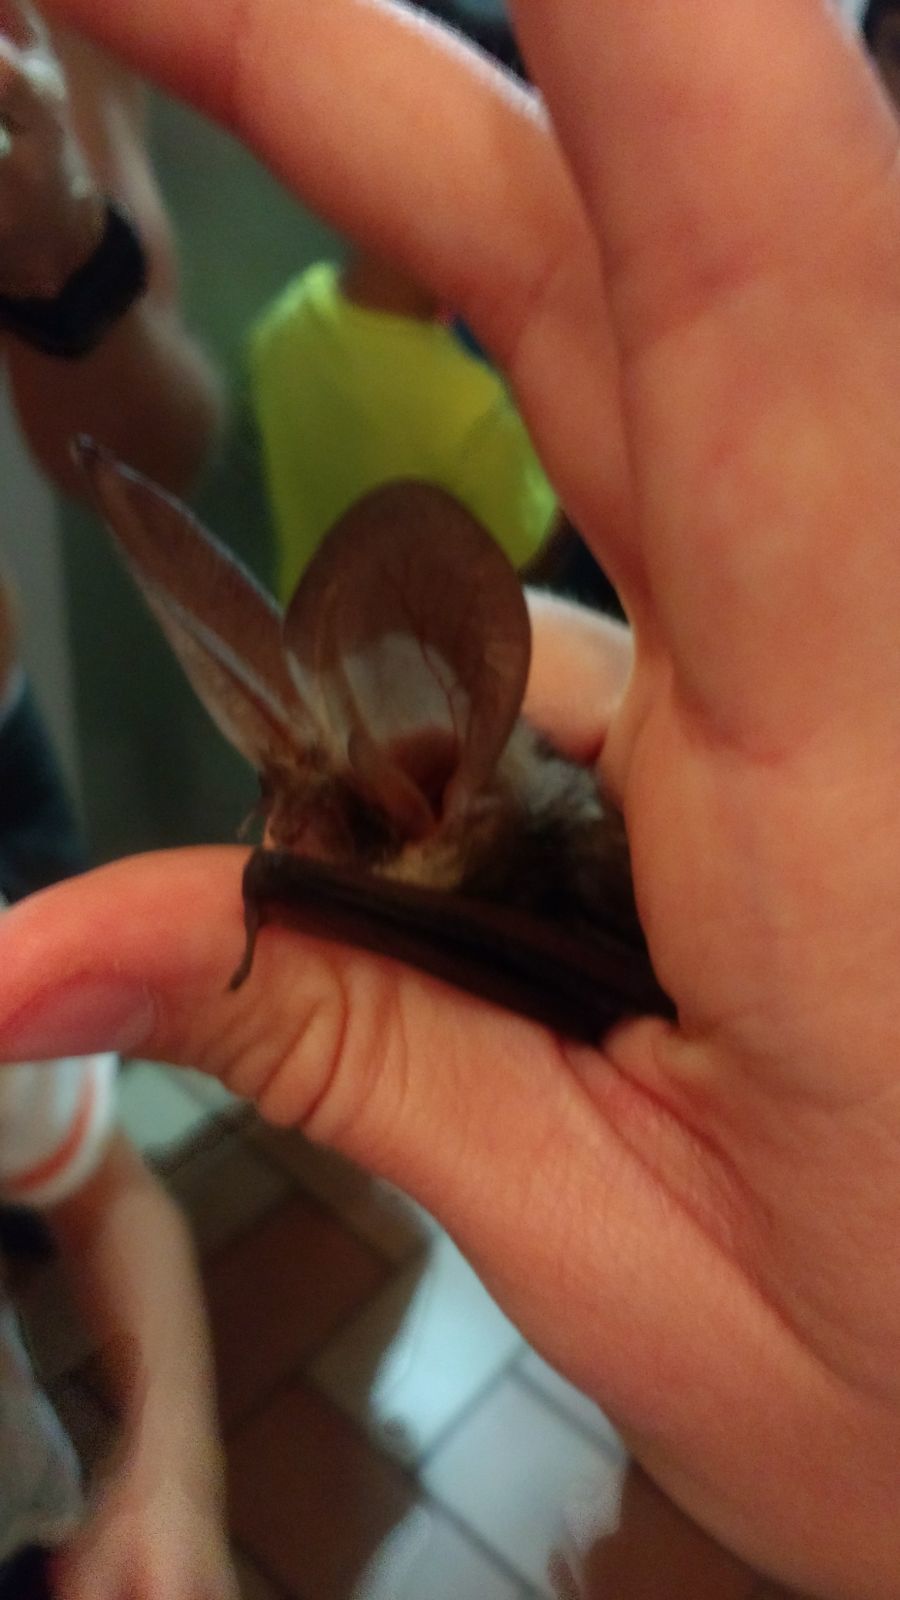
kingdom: Animalia
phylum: Chordata
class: Mammalia
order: Chiroptera
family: Vespertilionidae
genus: Plecotus
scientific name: Plecotus austriacus
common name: Grey long-eared bat
